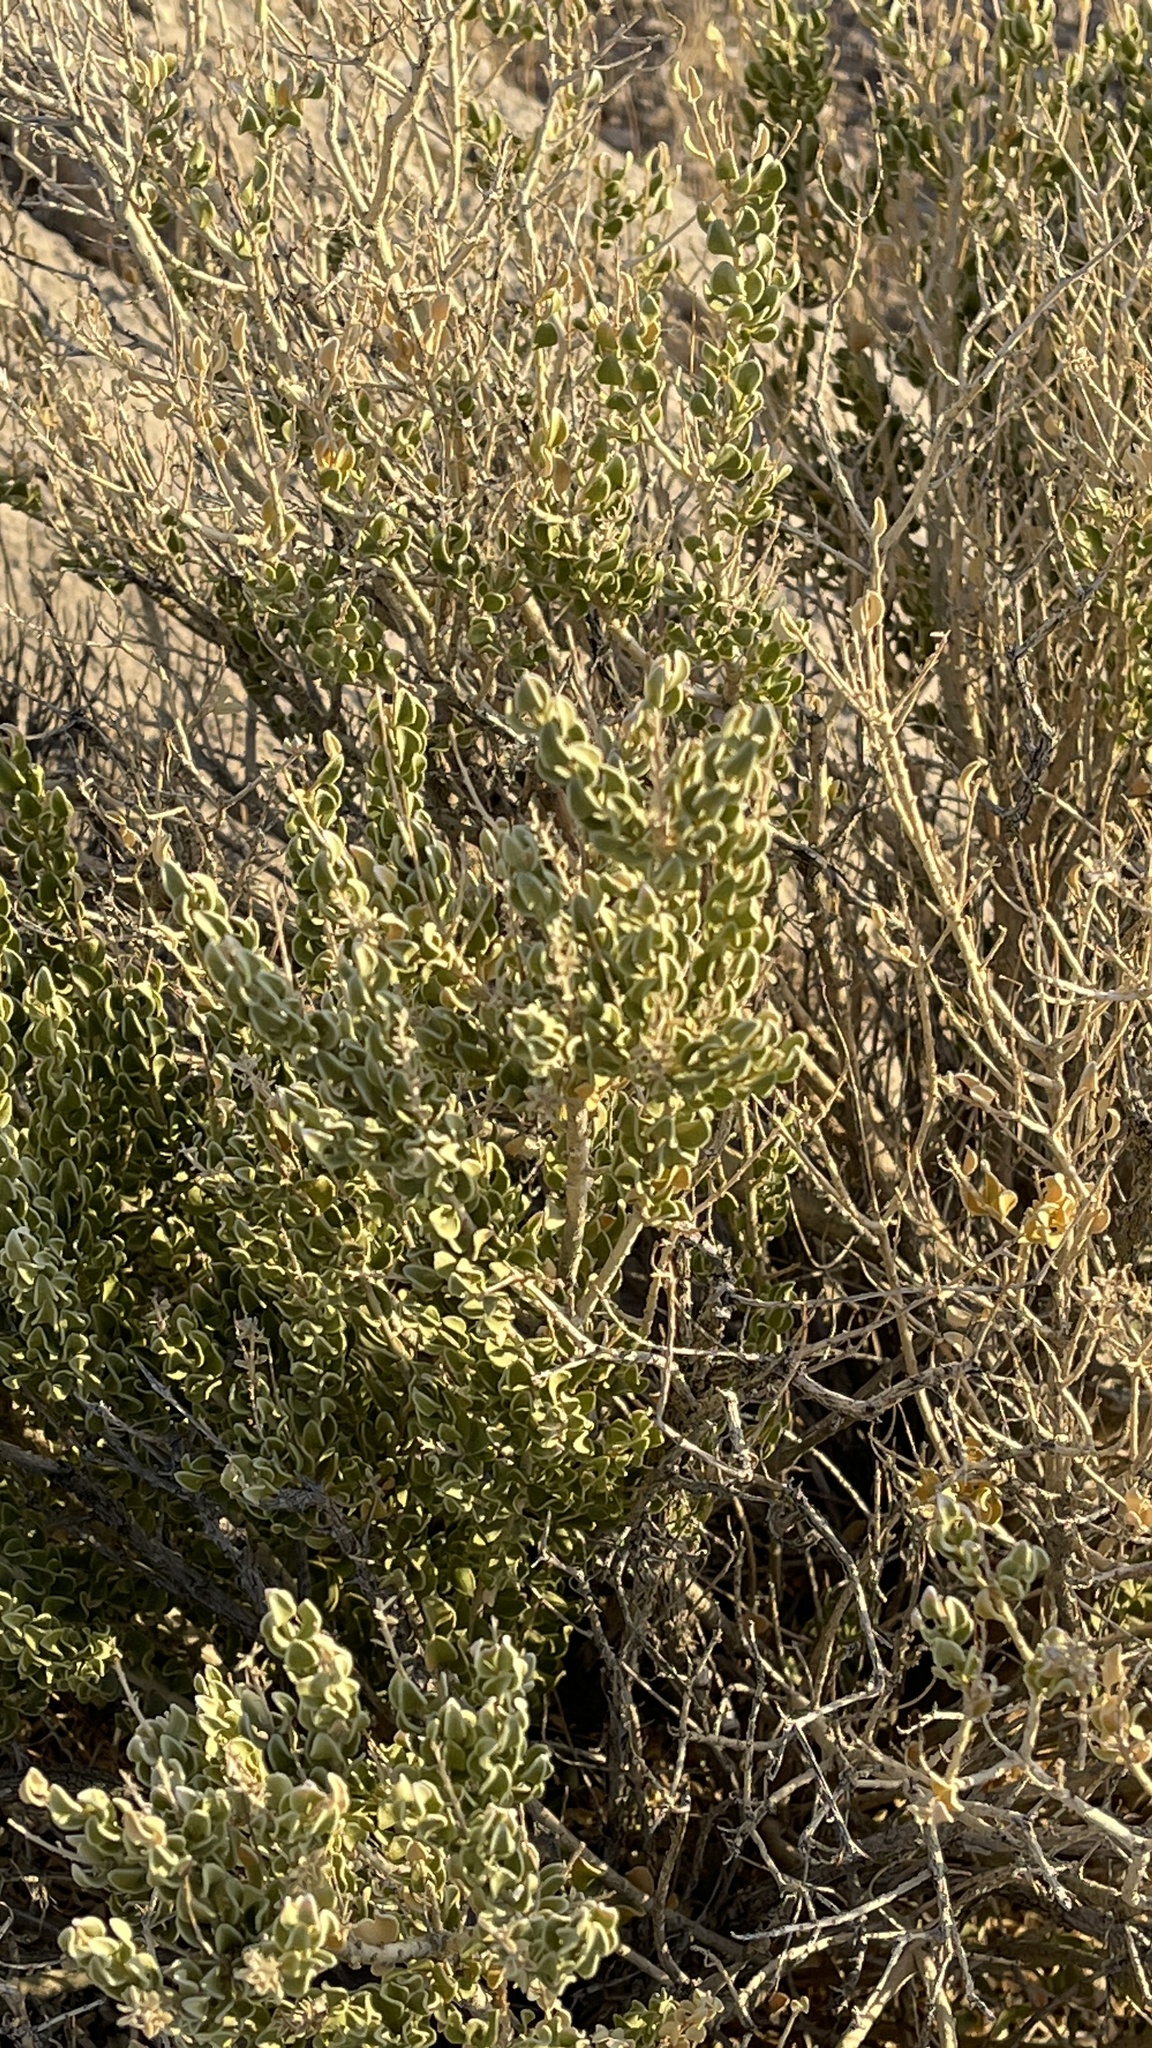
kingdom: Plantae
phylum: Tracheophyta
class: Magnoliopsida
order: Celastrales
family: Celastraceae
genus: Mortonia
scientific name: Mortonia utahensis
